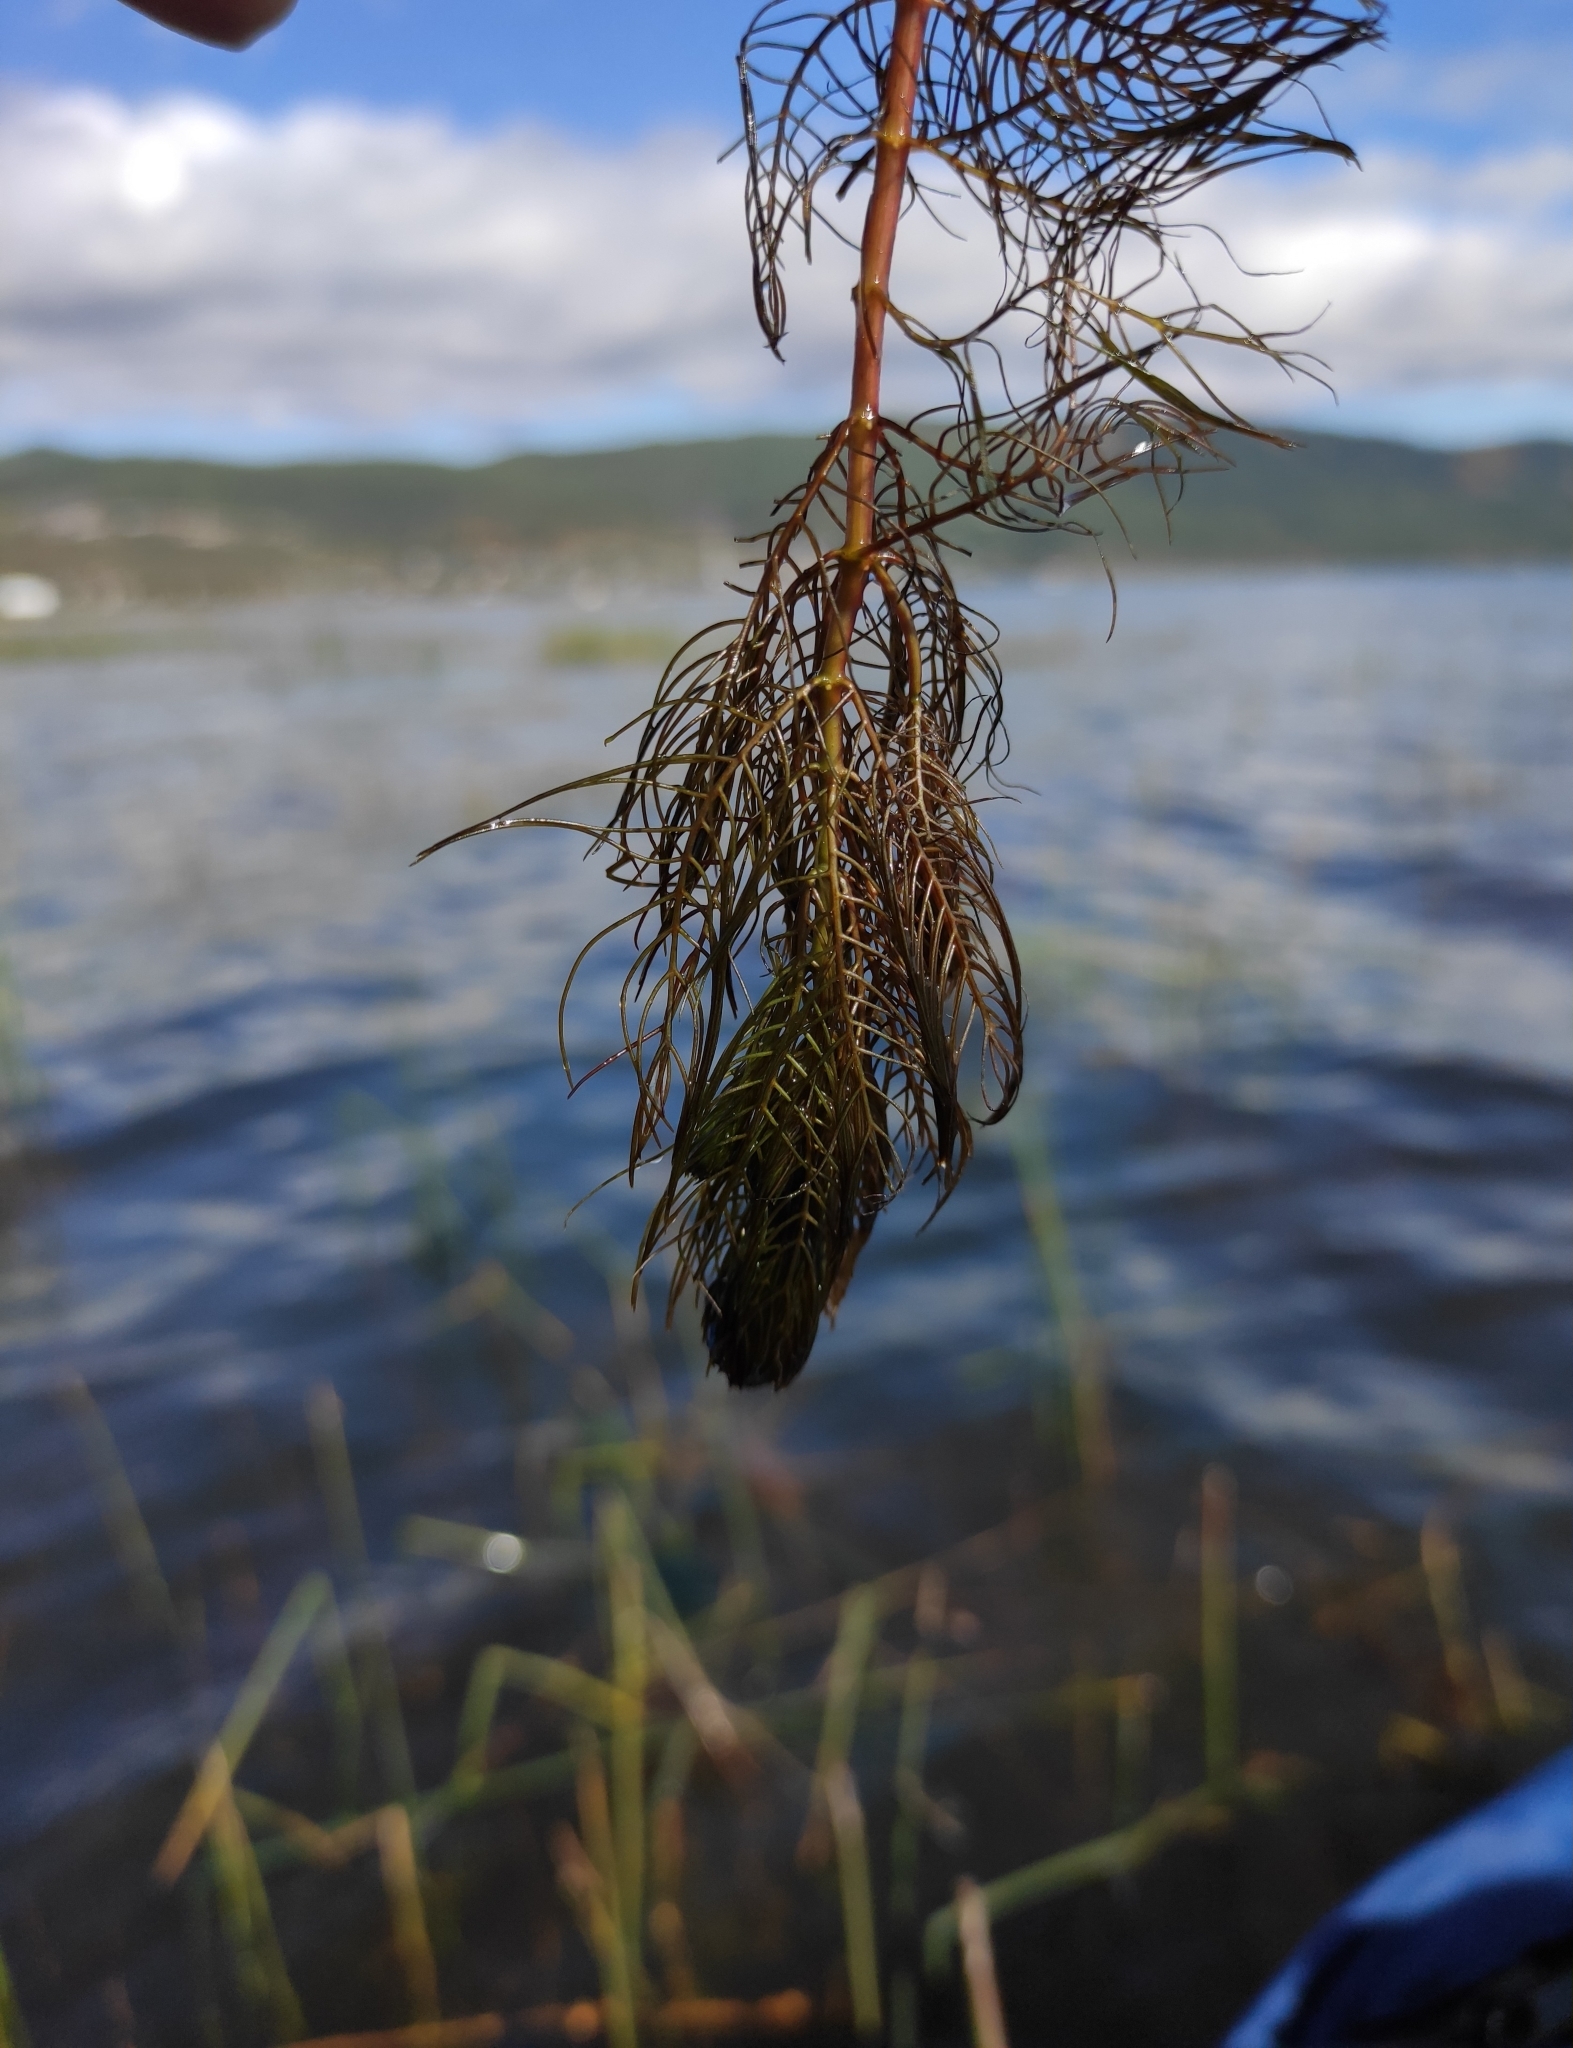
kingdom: Plantae
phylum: Tracheophyta
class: Magnoliopsida
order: Saxifragales
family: Haloragaceae
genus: Myriophyllum
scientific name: Myriophyllum sibiricum
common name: Siberian water-milfoil
